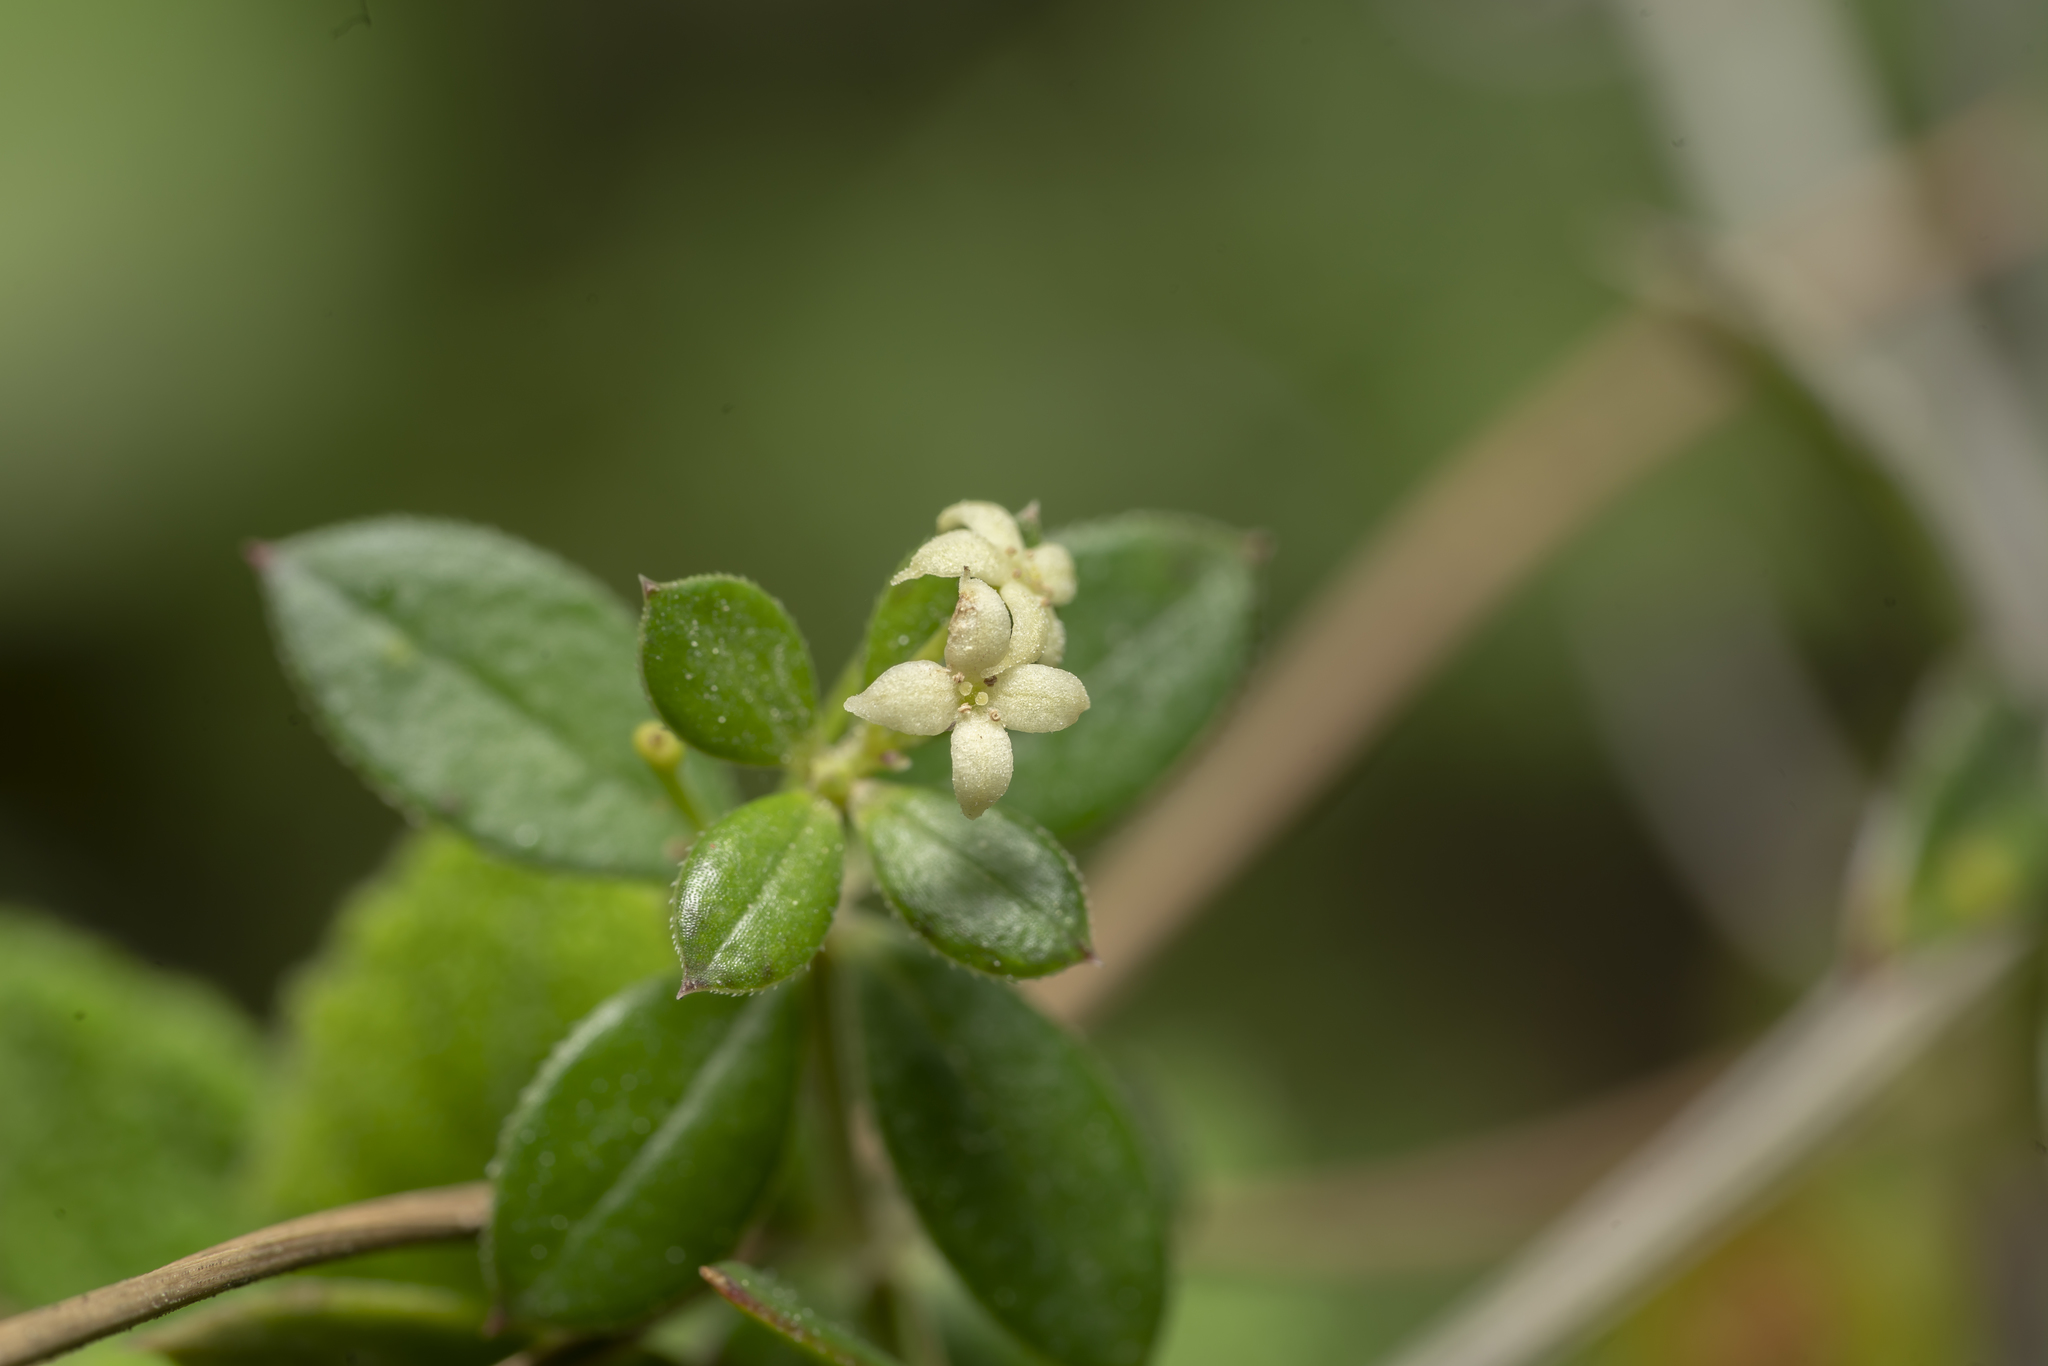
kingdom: Plantae
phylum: Tracheophyta
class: Magnoliopsida
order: Gentianales
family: Rubiaceae
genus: Rubia
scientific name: Rubia tenuifolia
